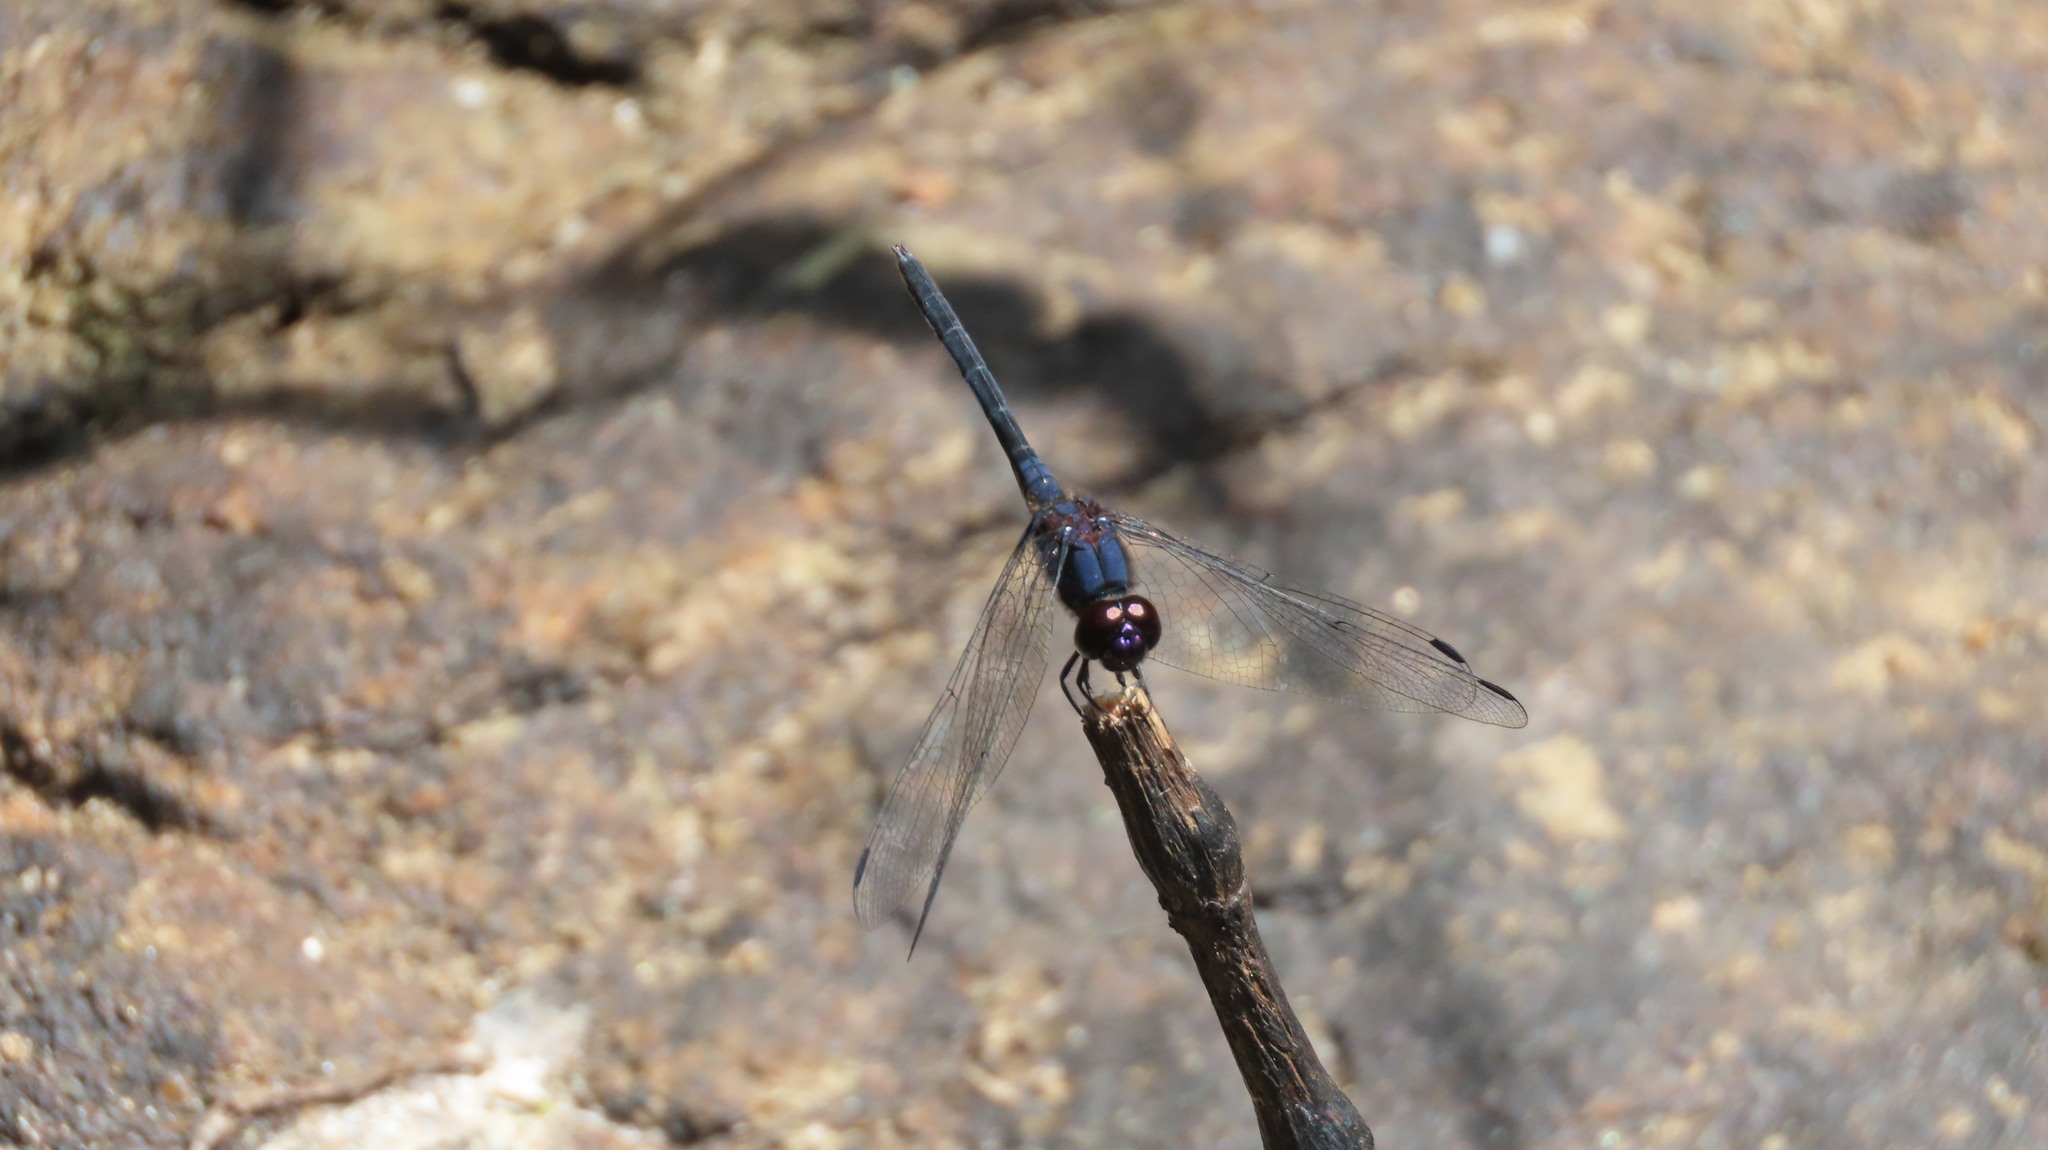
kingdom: Animalia
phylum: Arthropoda
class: Insecta
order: Odonata
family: Libellulidae
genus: Trithemis
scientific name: Trithemis festiva
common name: Indigo dropwing
